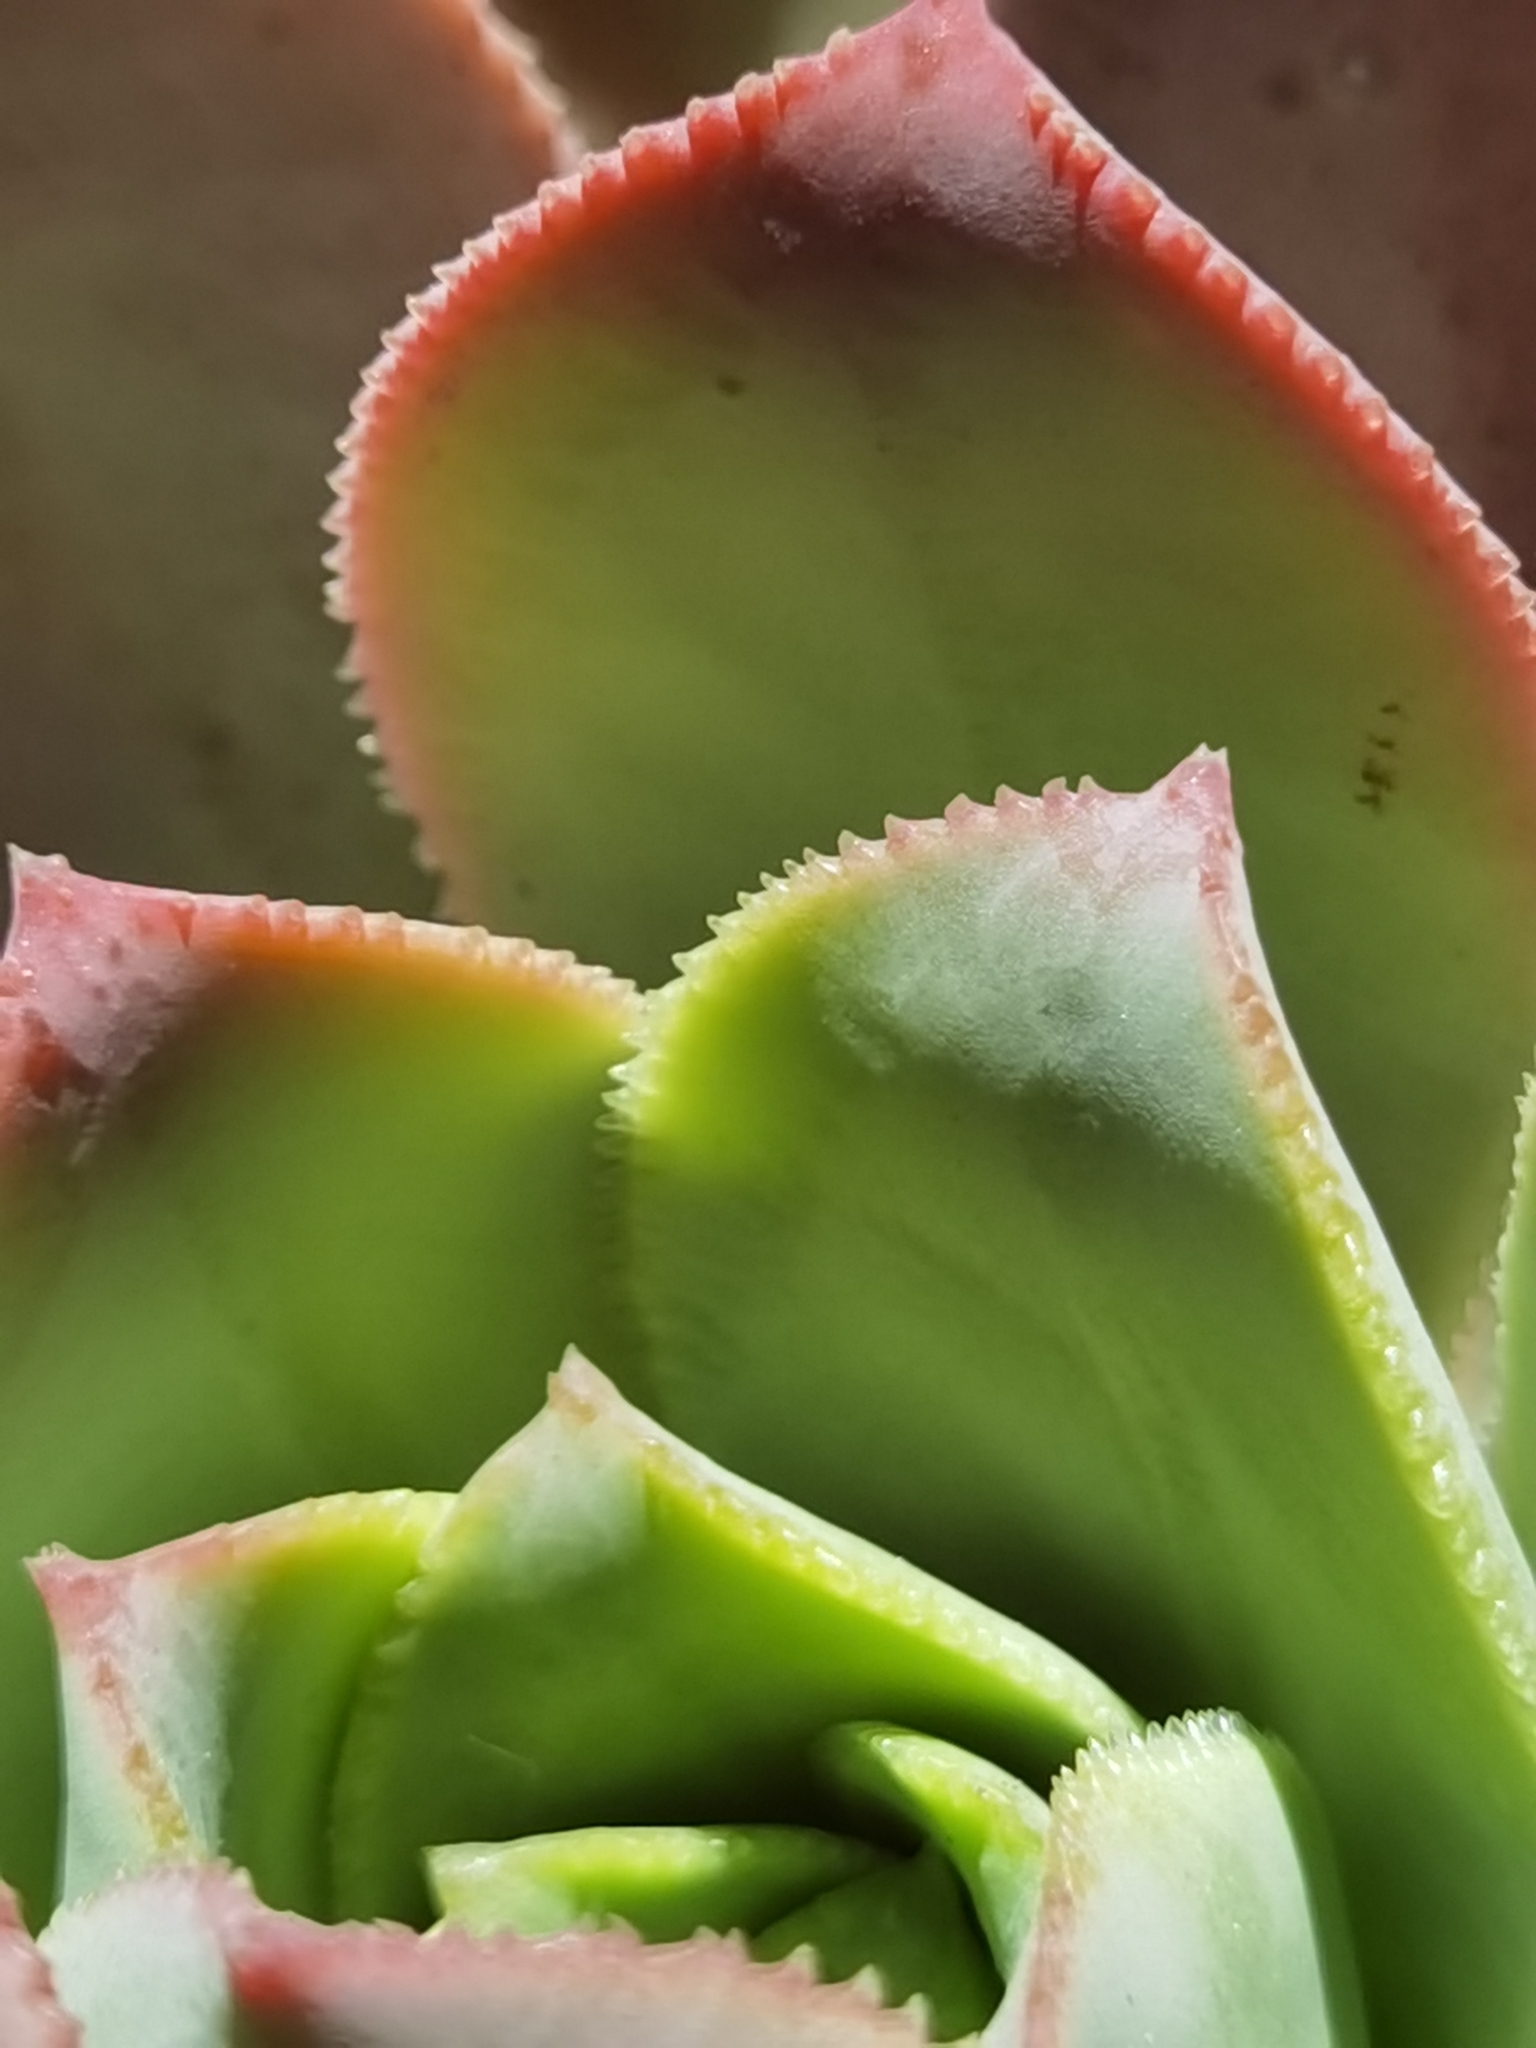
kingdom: Plantae
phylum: Tracheophyta
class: Magnoliopsida
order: Saxifragales
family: Crassulaceae
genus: Aeonium
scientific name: Aeonium davidbramwellii
